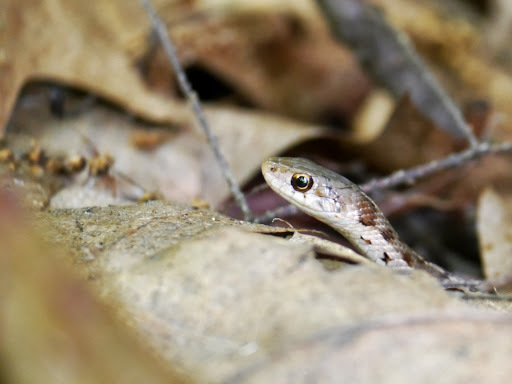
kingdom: Animalia
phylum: Chordata
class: Squamata
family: Colubridae
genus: Thamnophis
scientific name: Thamnophis sirtalis
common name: Common garter snake
